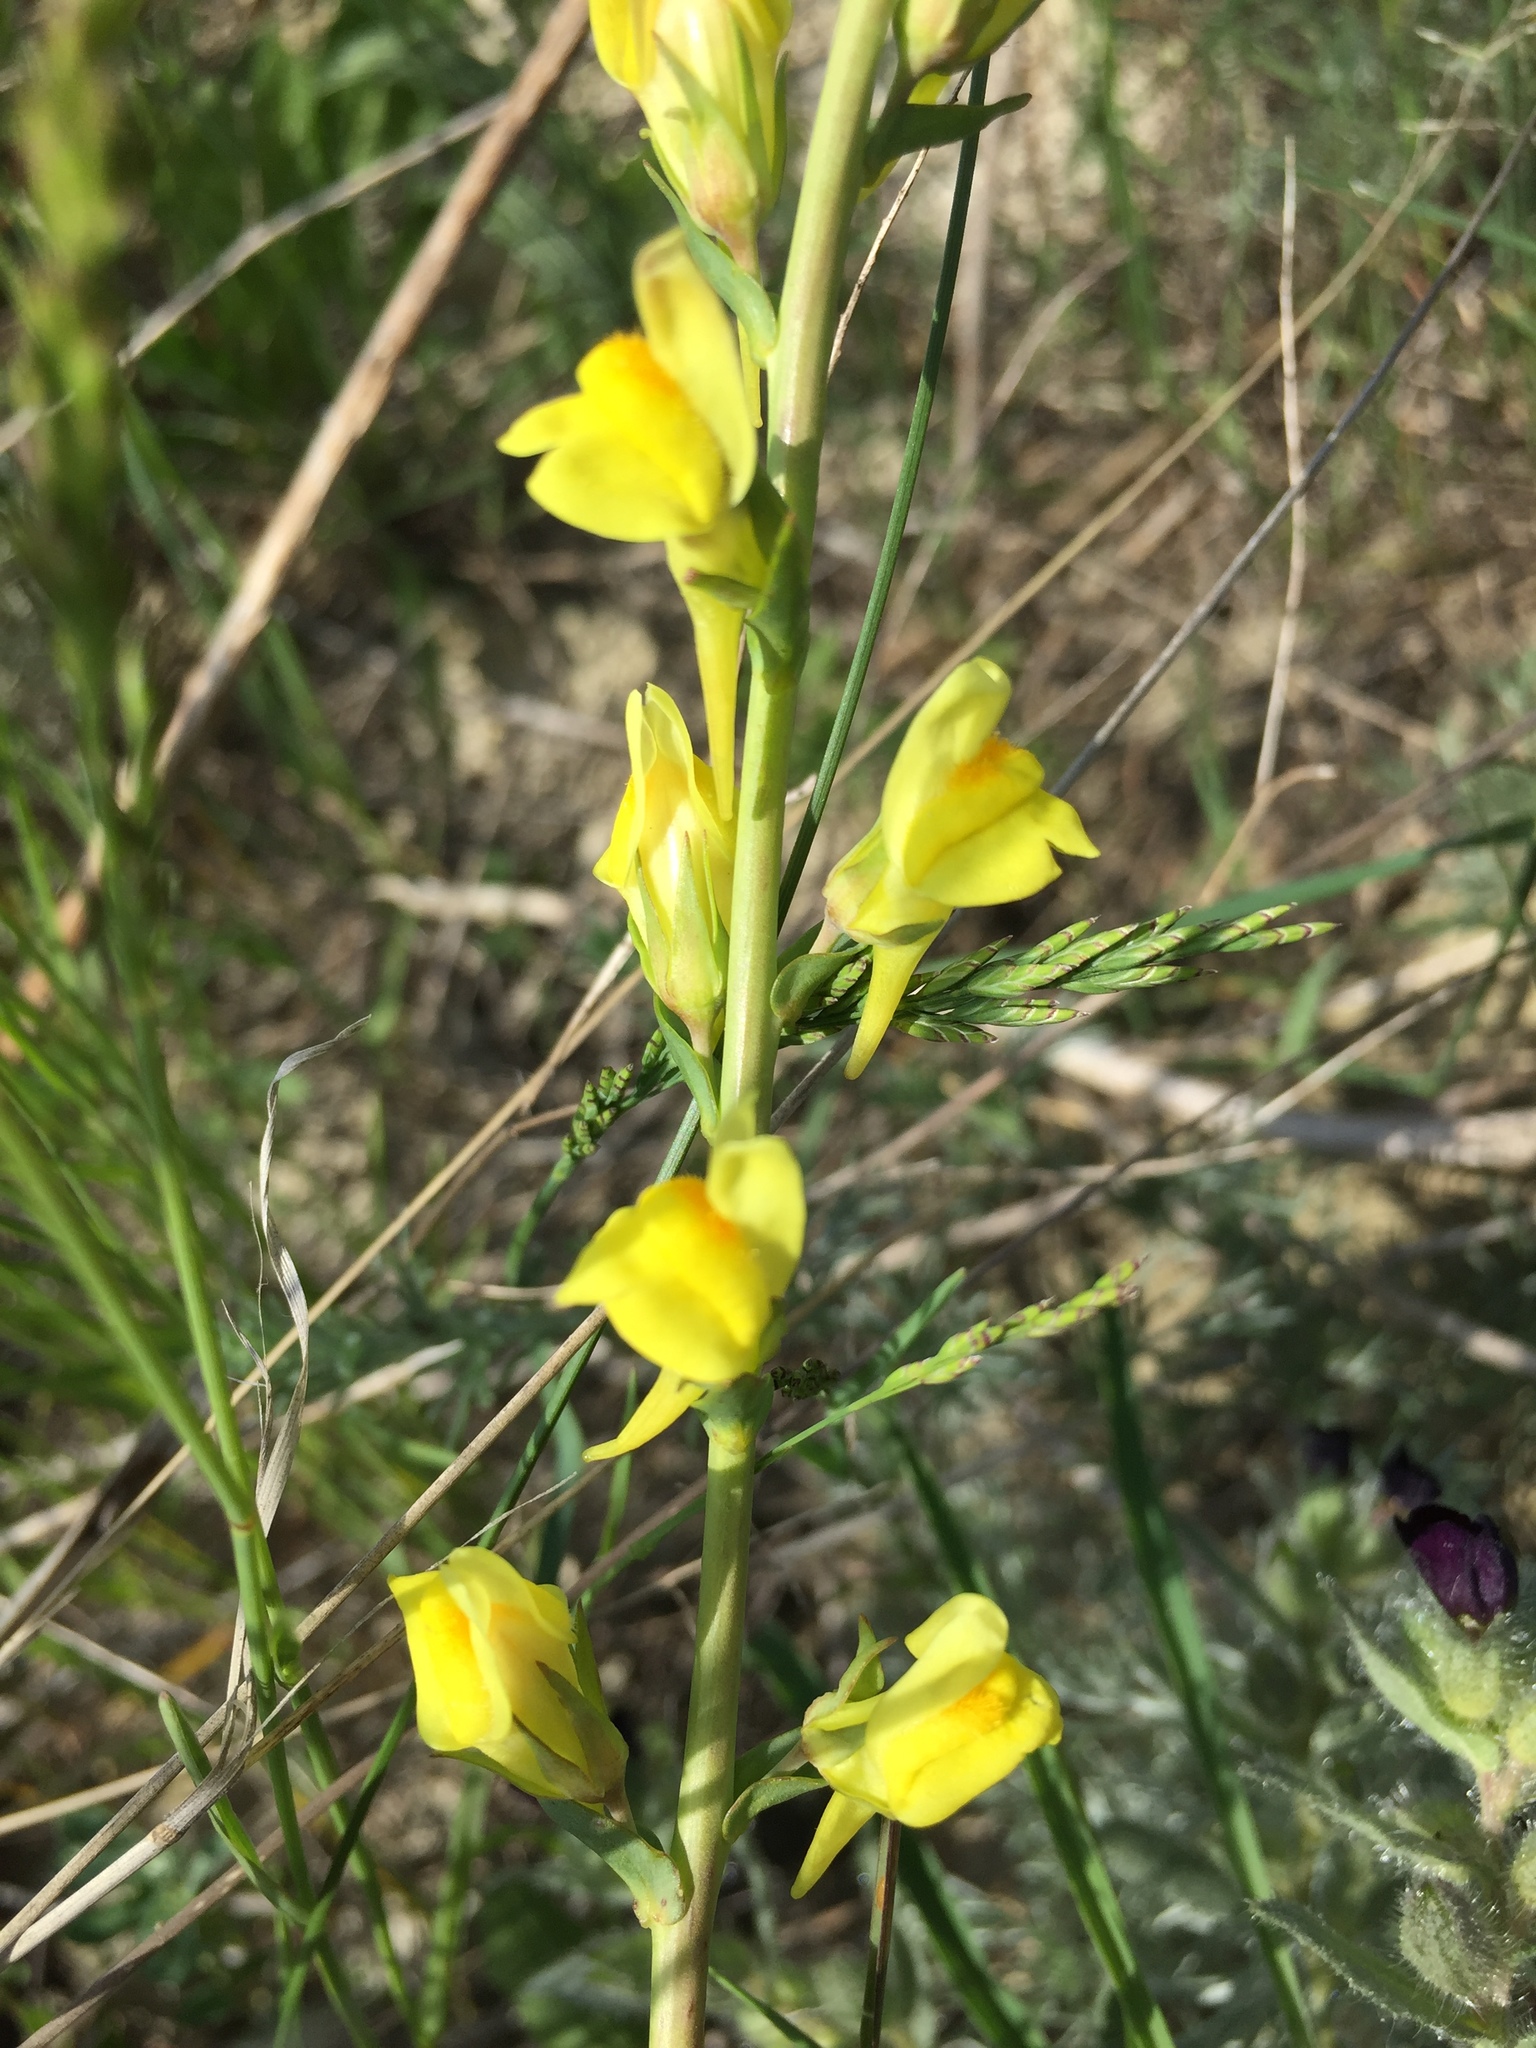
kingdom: Plantae
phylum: Tracheophyta
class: Magnoliopsida
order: Lamiales
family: Plantaginaceae
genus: Linaria
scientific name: Linaria genistifolia
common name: Broomleaf toadflax
